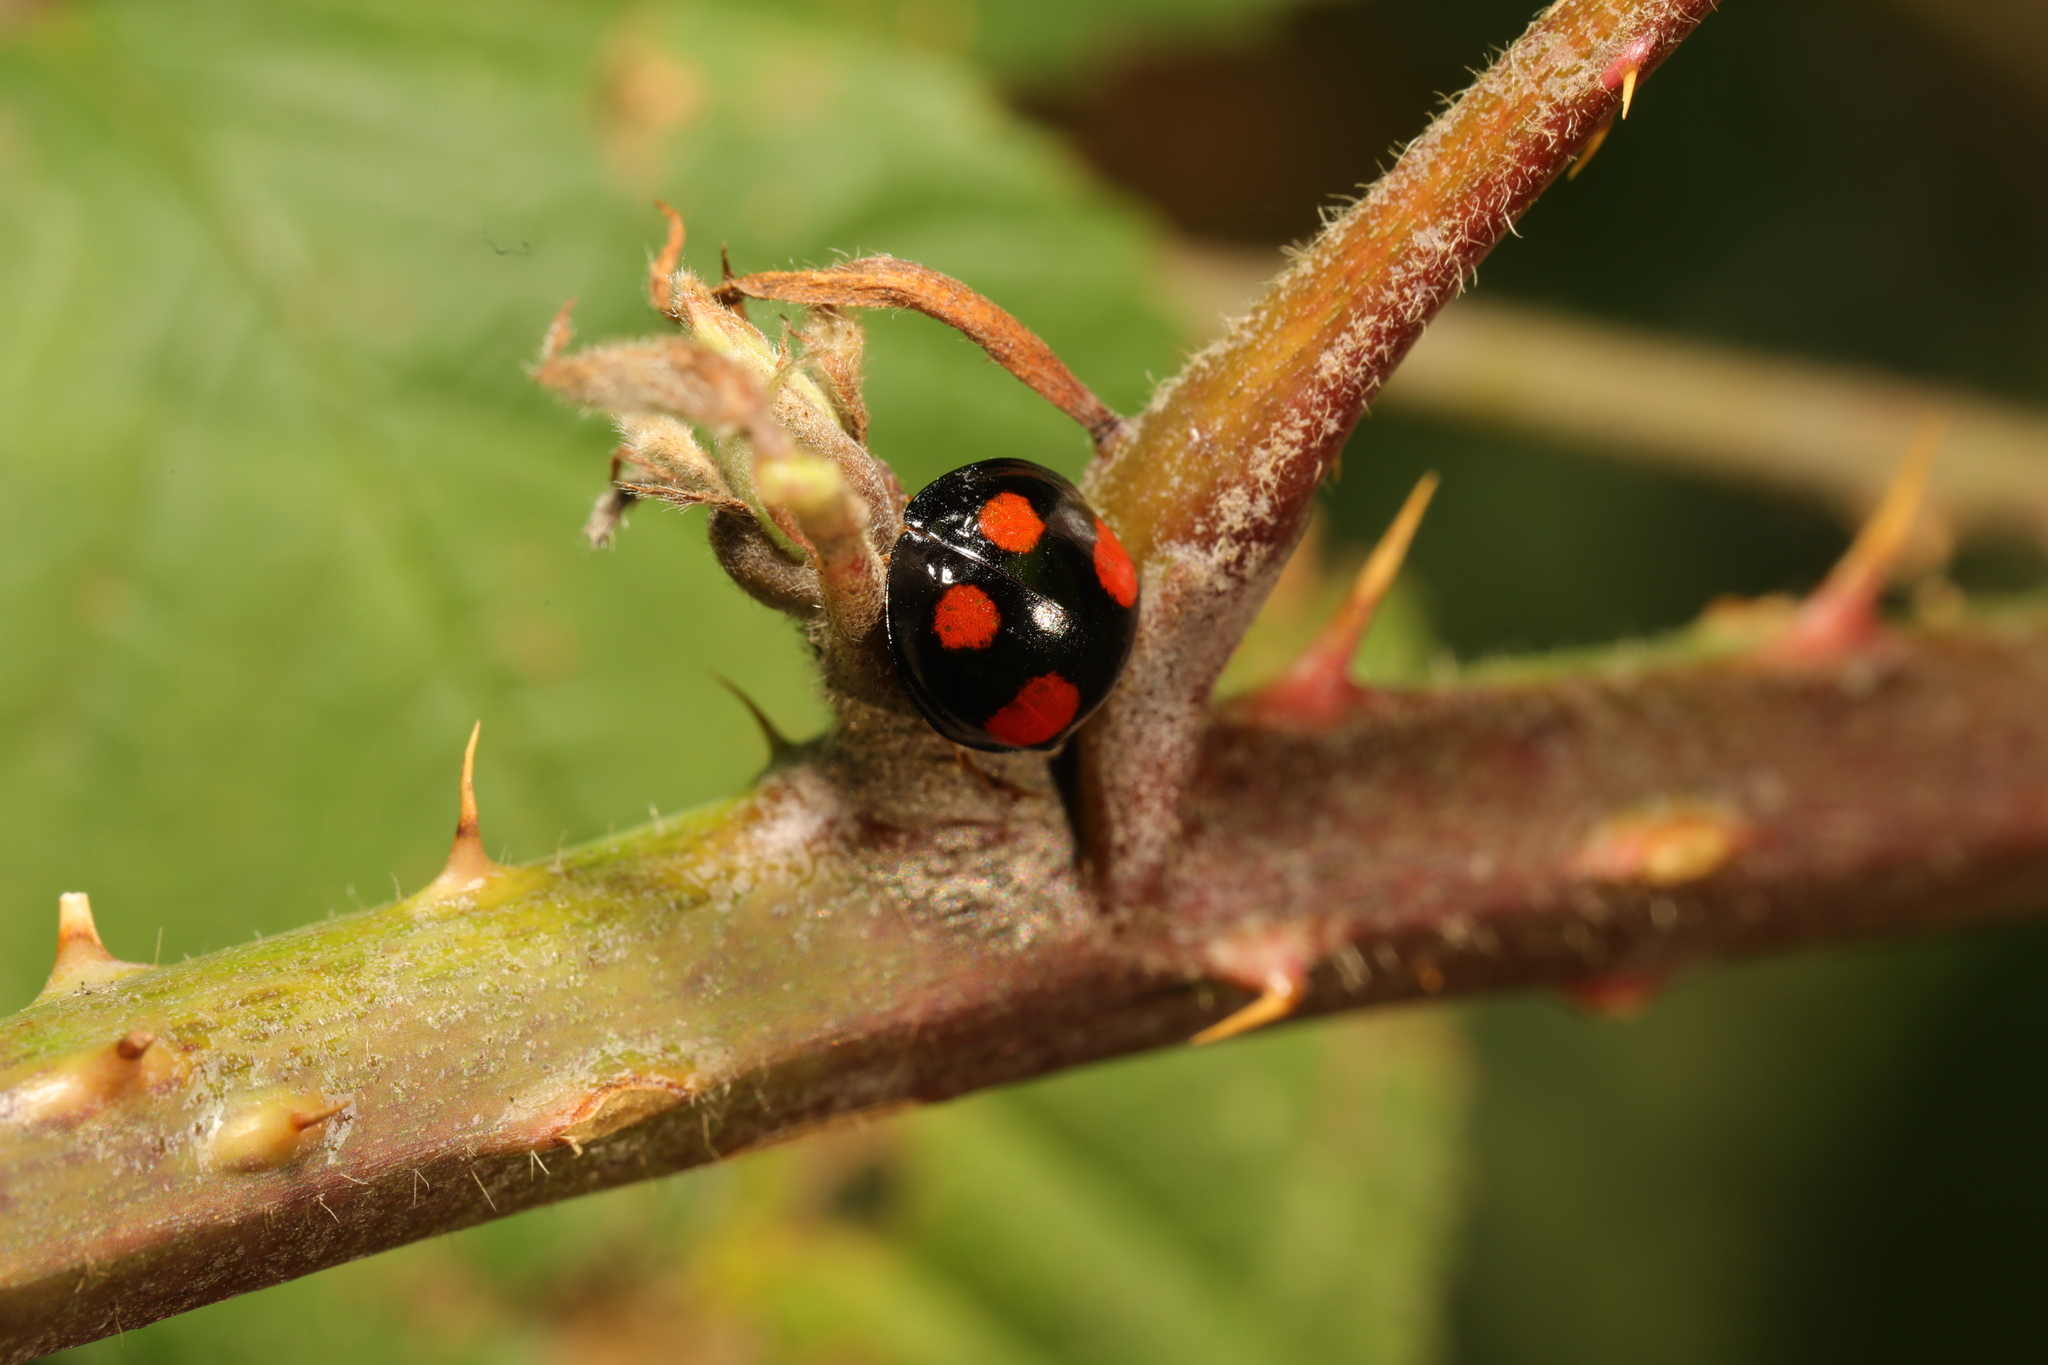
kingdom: Animalia
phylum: Arthropoda
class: Insecta
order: Coleoptera
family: Coccinellidae
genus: Harmonia
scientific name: Harmonia axyridis
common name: Harlequin ladybird
